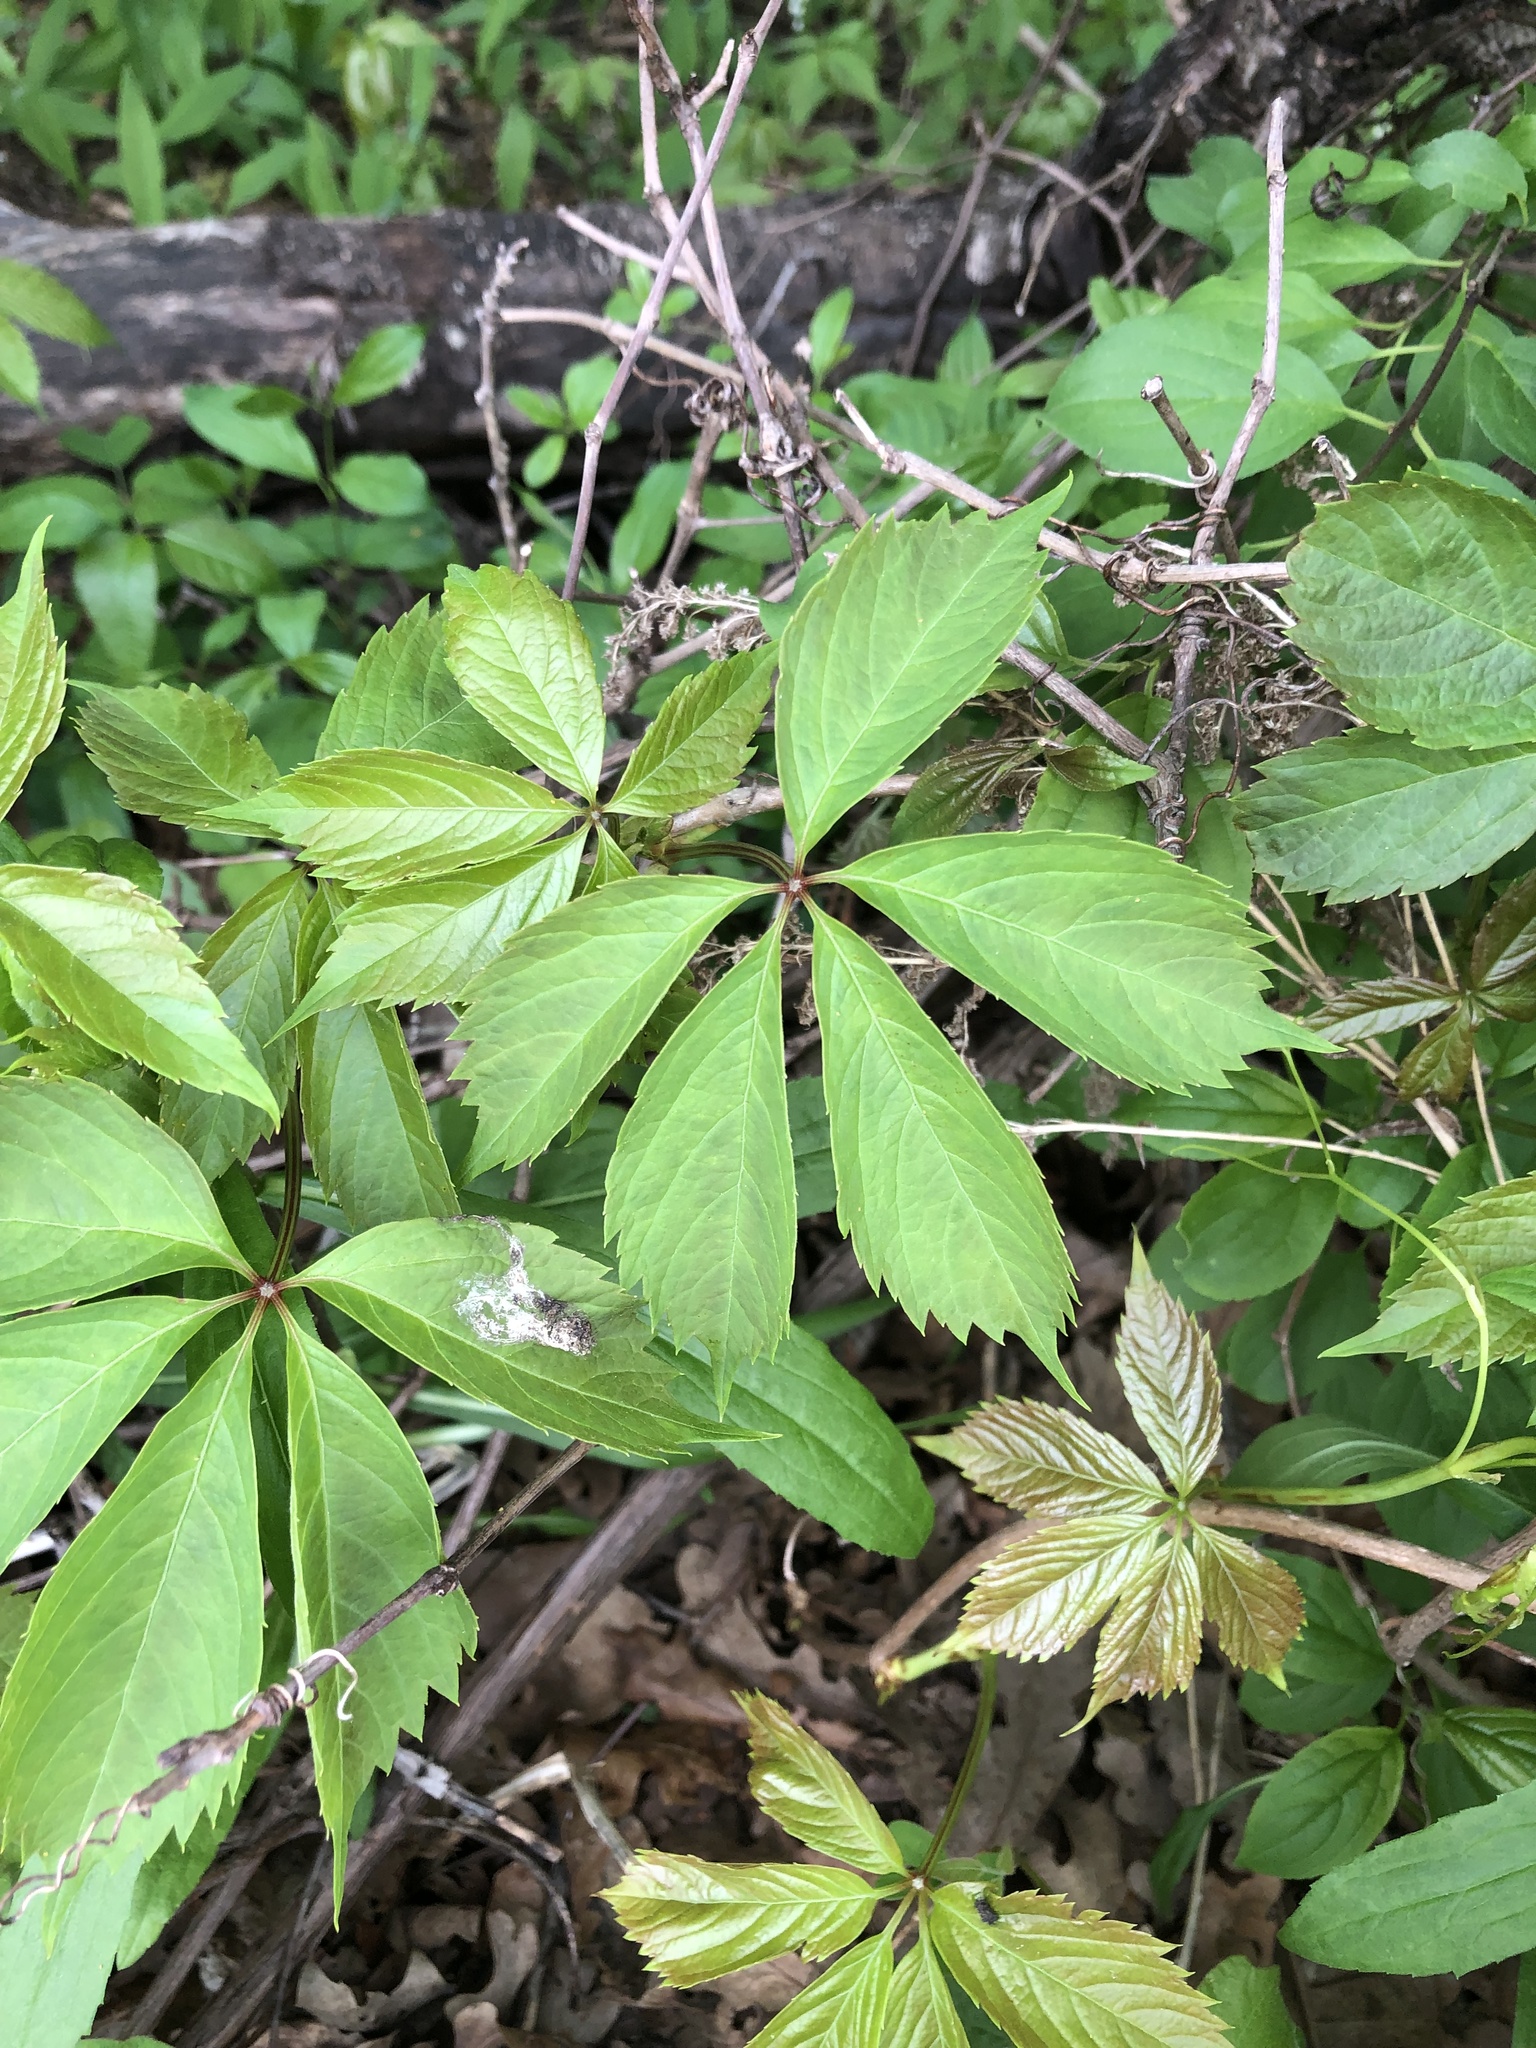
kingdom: Plantae
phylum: Tracheophyta
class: Magnoliopsida
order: Vitales
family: Vitaceae
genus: Parthenocissus
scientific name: Parthenocissus quinquefolia
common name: Virginia-creeper
